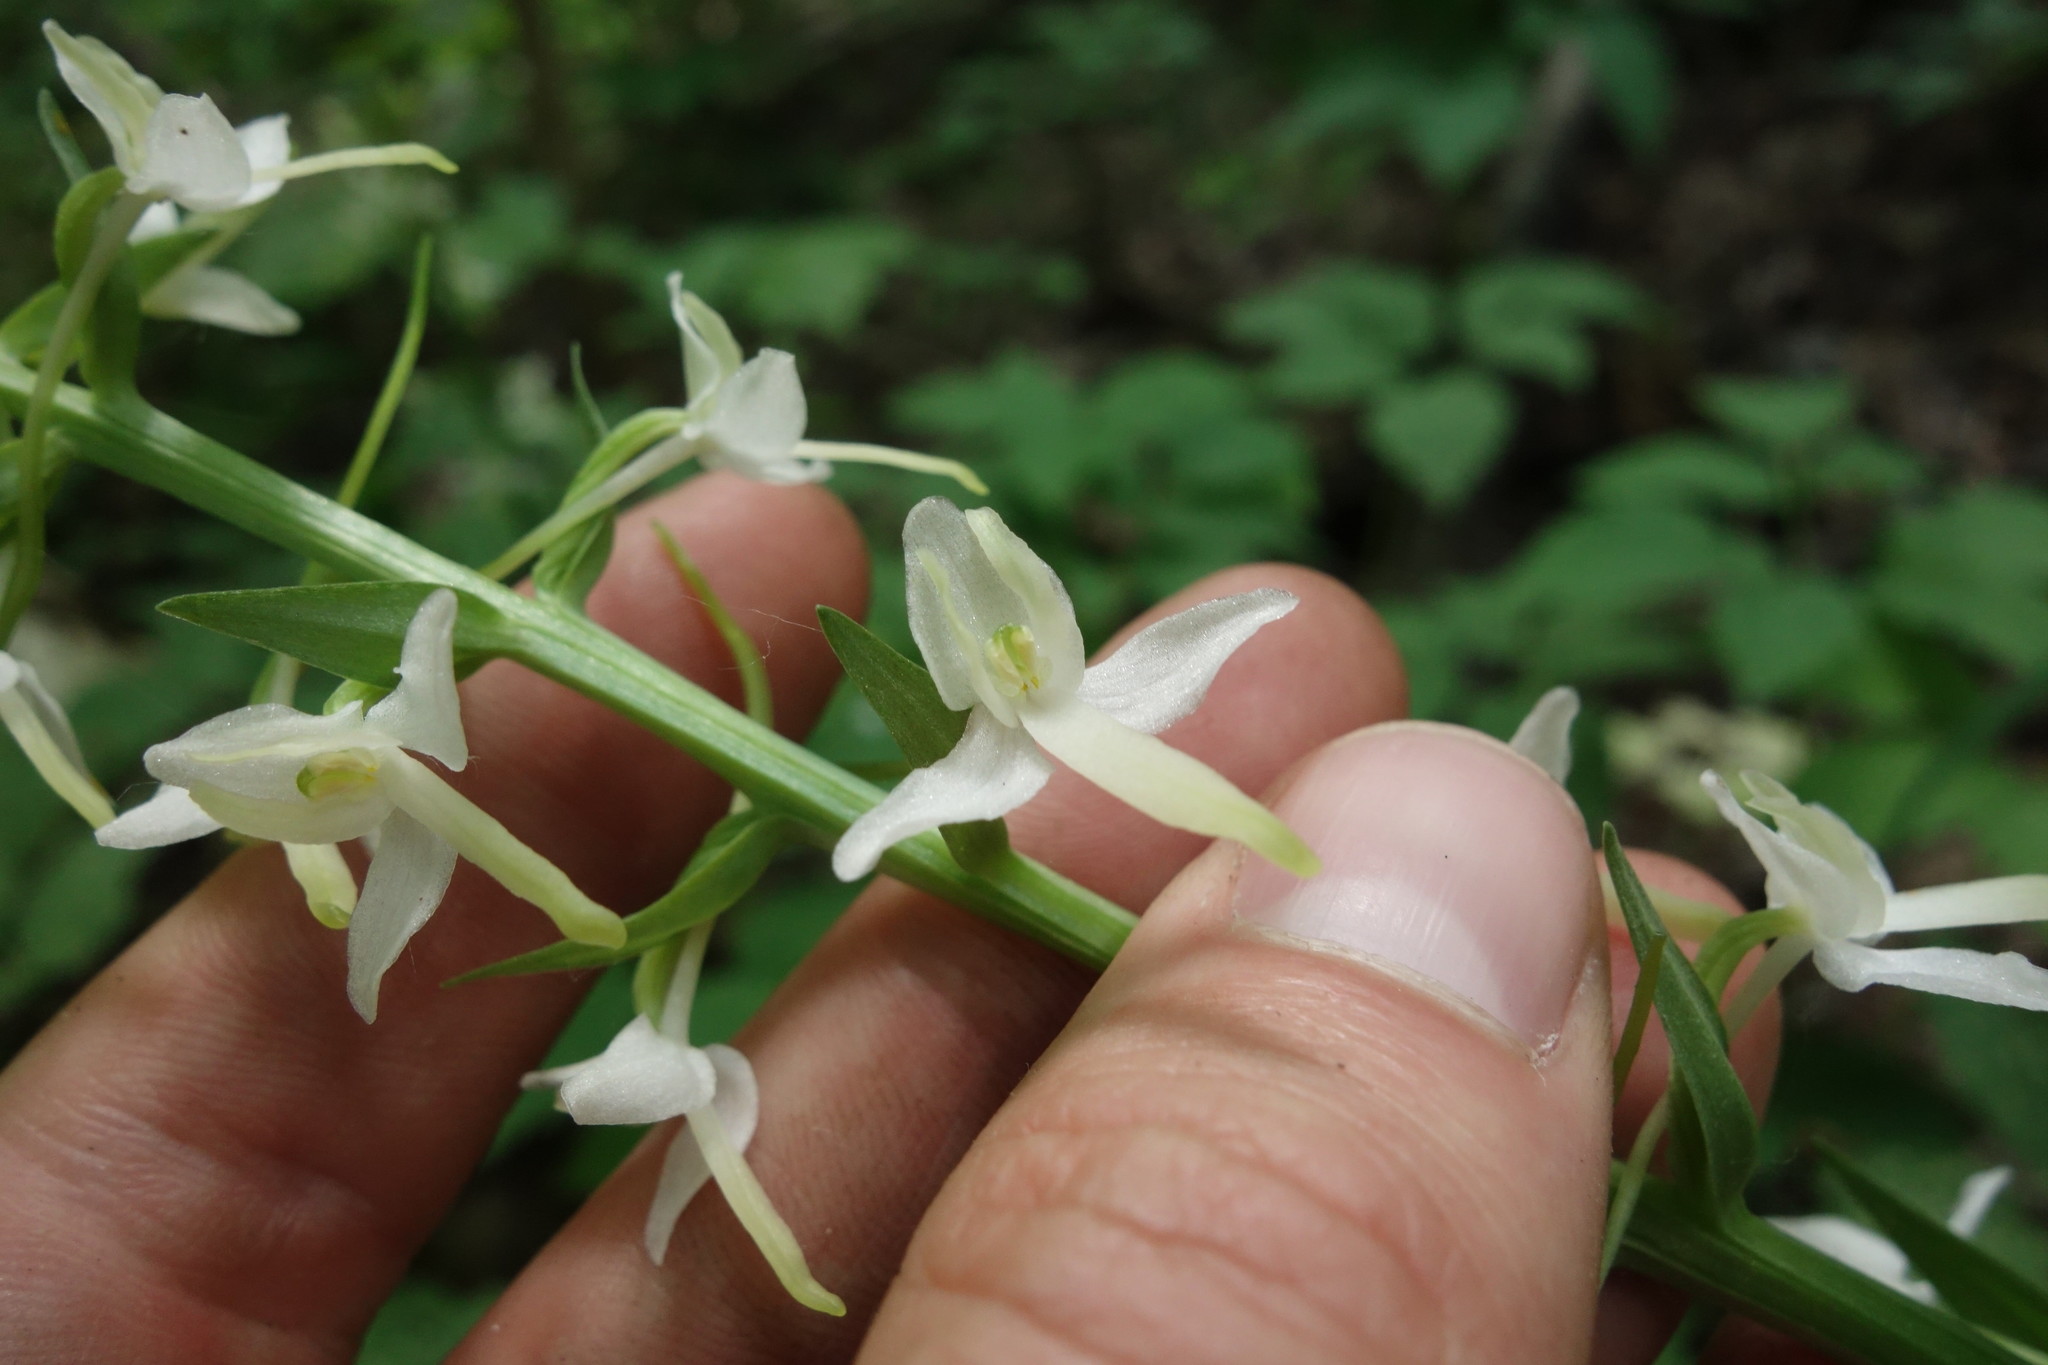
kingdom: Plantae
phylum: Tracheophyta
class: Liliopsida
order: Asparagales
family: Orchidaceae
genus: Platanthera
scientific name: Platanthera bifolia
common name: Lesser butterfly-orchid
